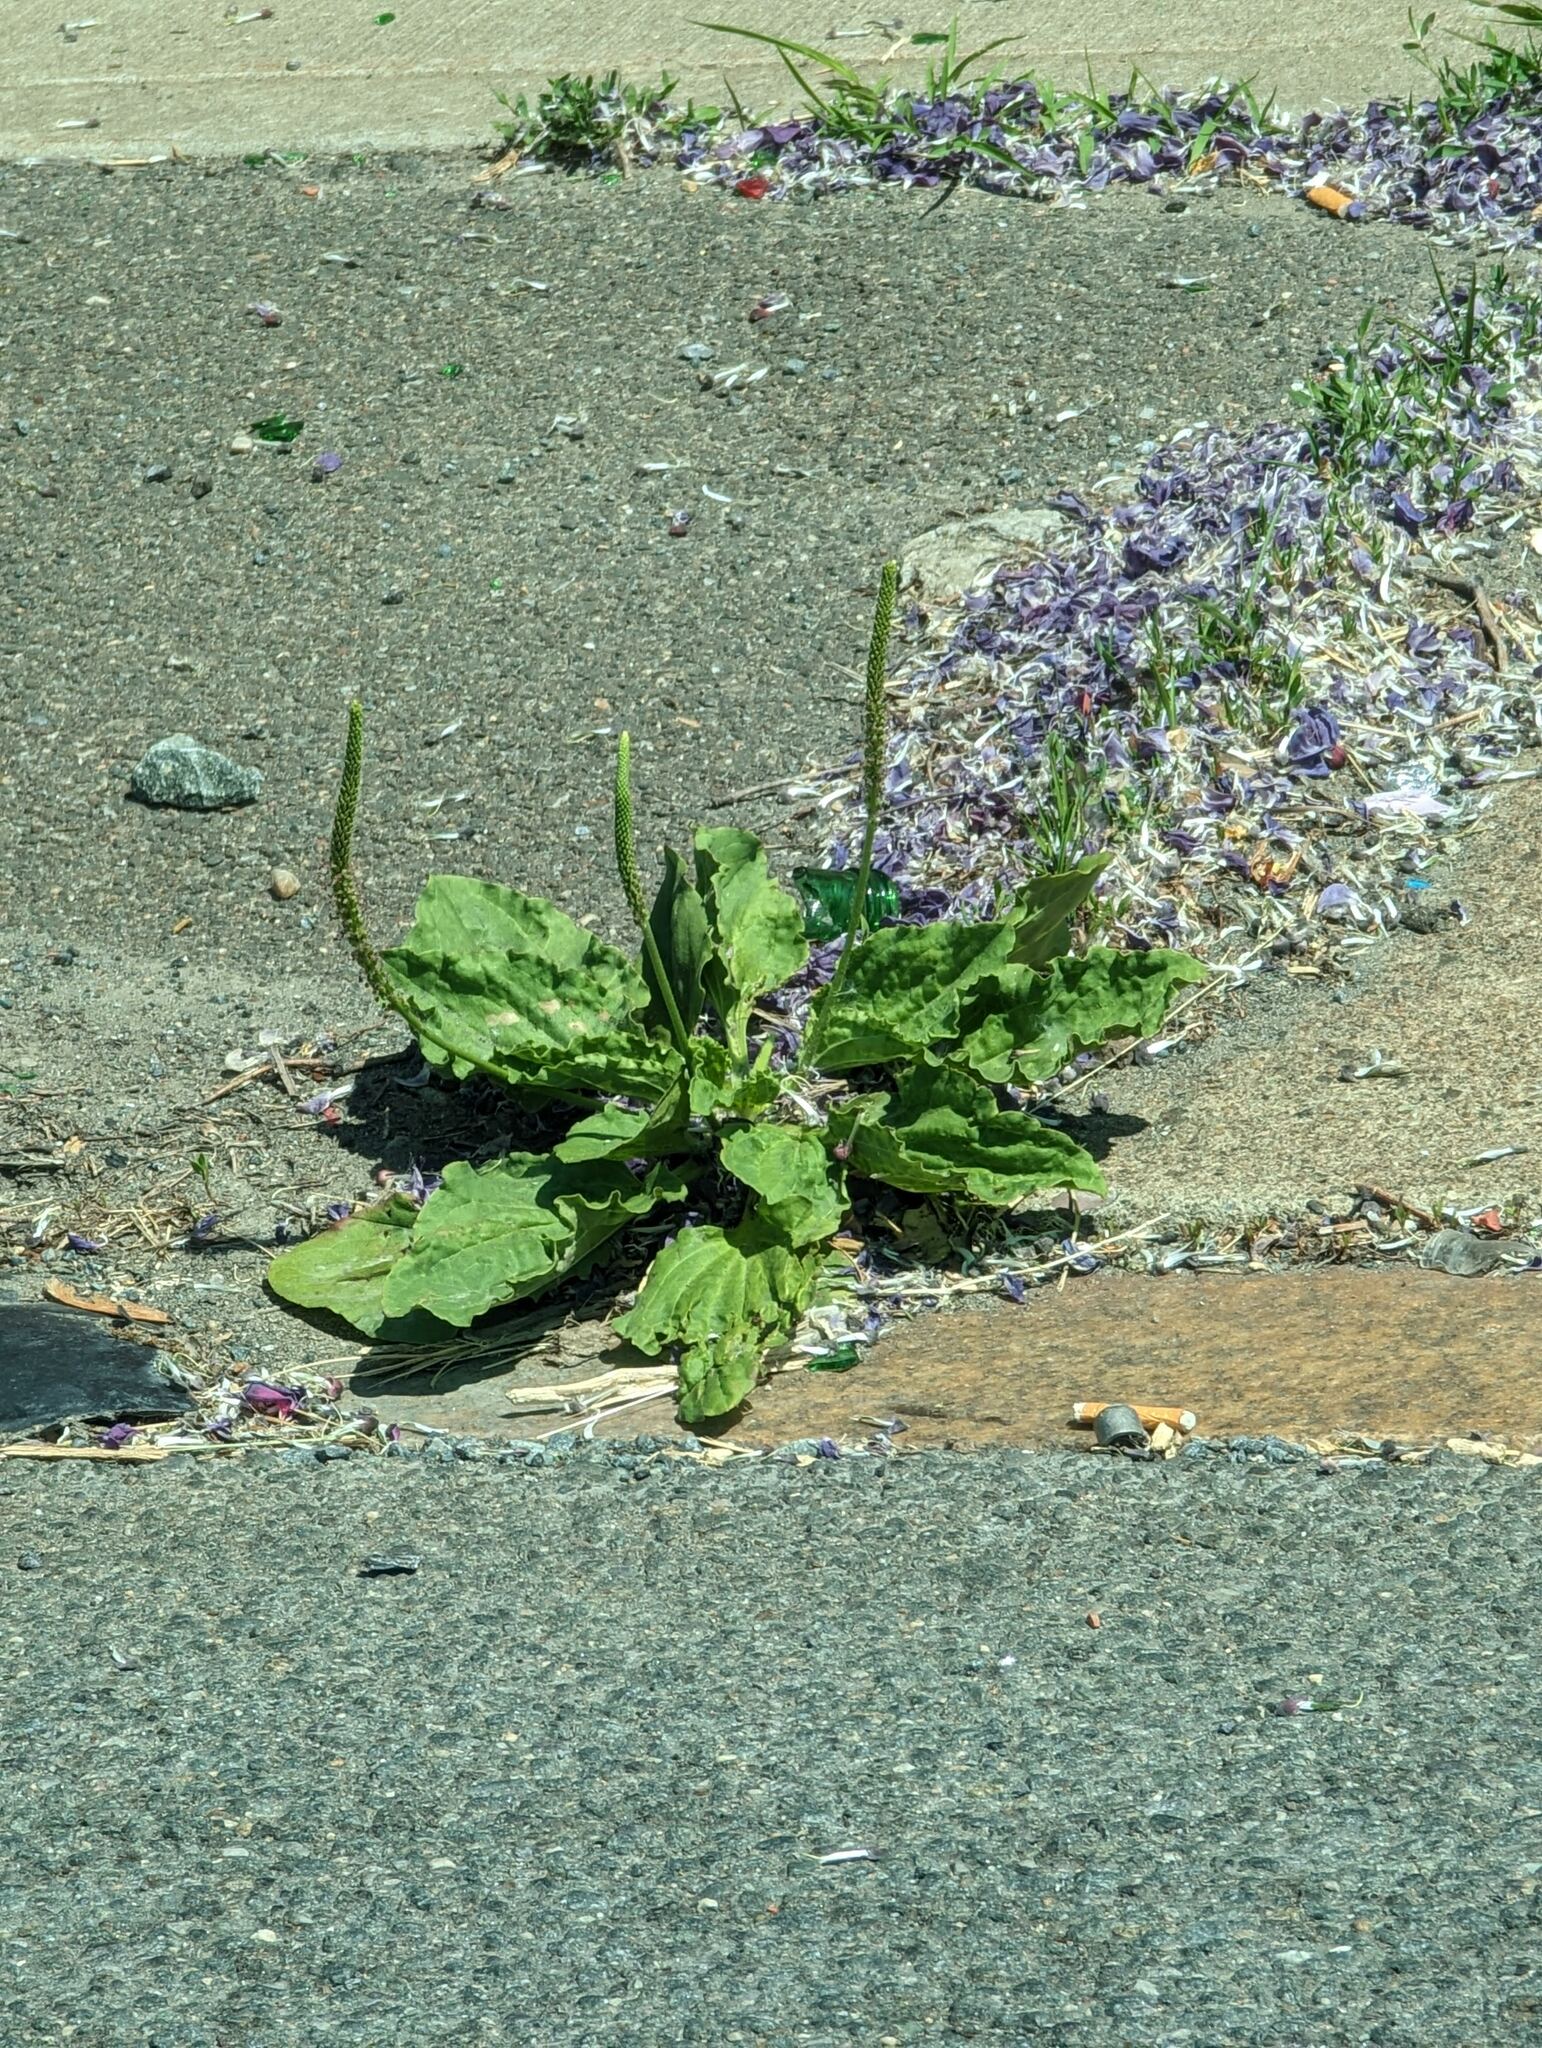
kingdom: Plantae
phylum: Tracheophyta
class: Magnoliopsida
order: Lamiales
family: Plantaginaceae
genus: Plantago
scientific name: Plantago major
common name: Common plantain
